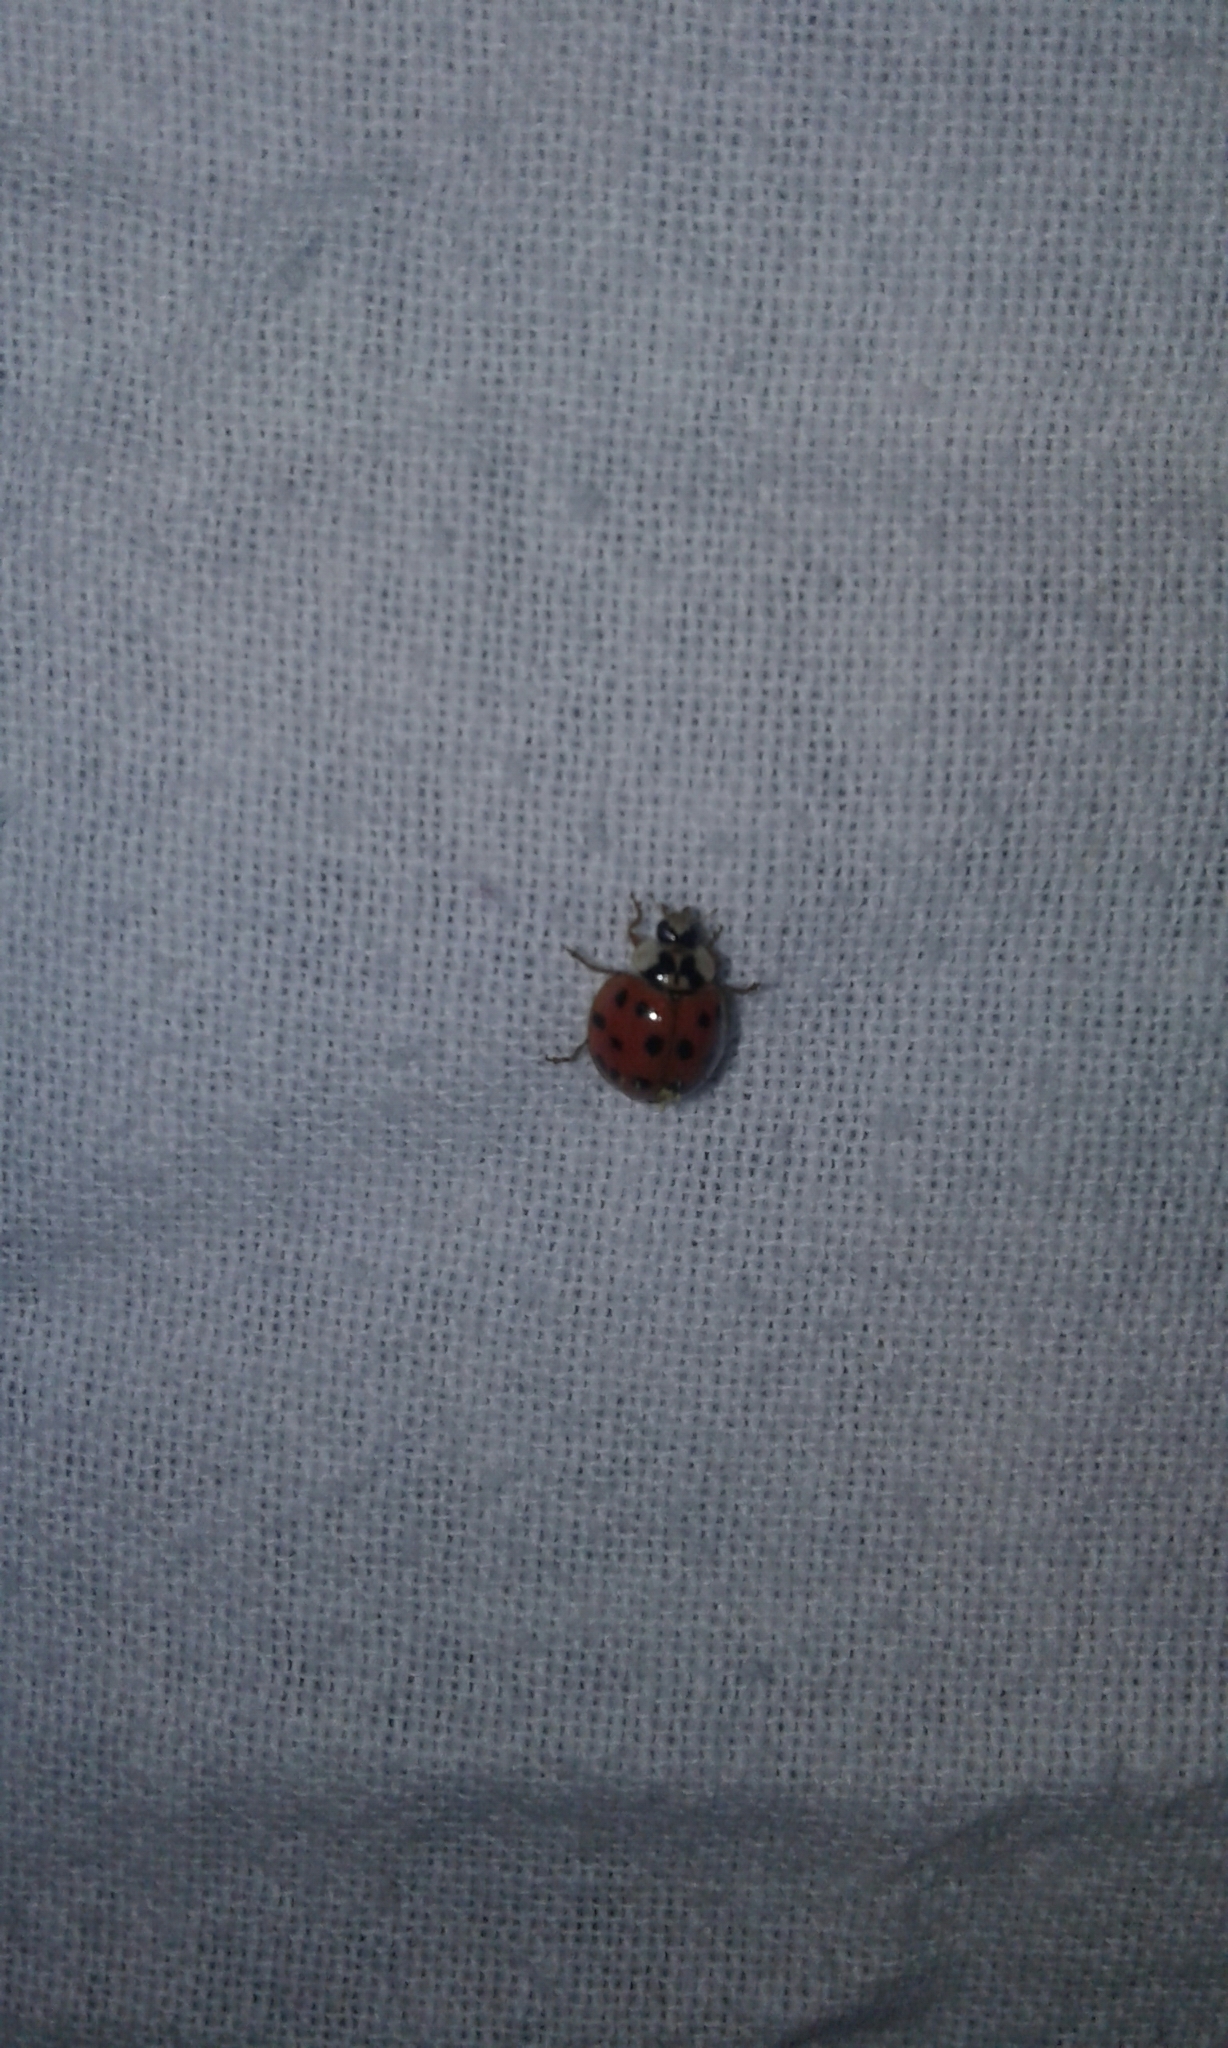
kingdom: Animalia
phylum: Arthropoda
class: Insecta
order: Coleoptera
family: Coccinellidae
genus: Harmonia
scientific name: Harmonia axyridis
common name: Harlequin ladybird
